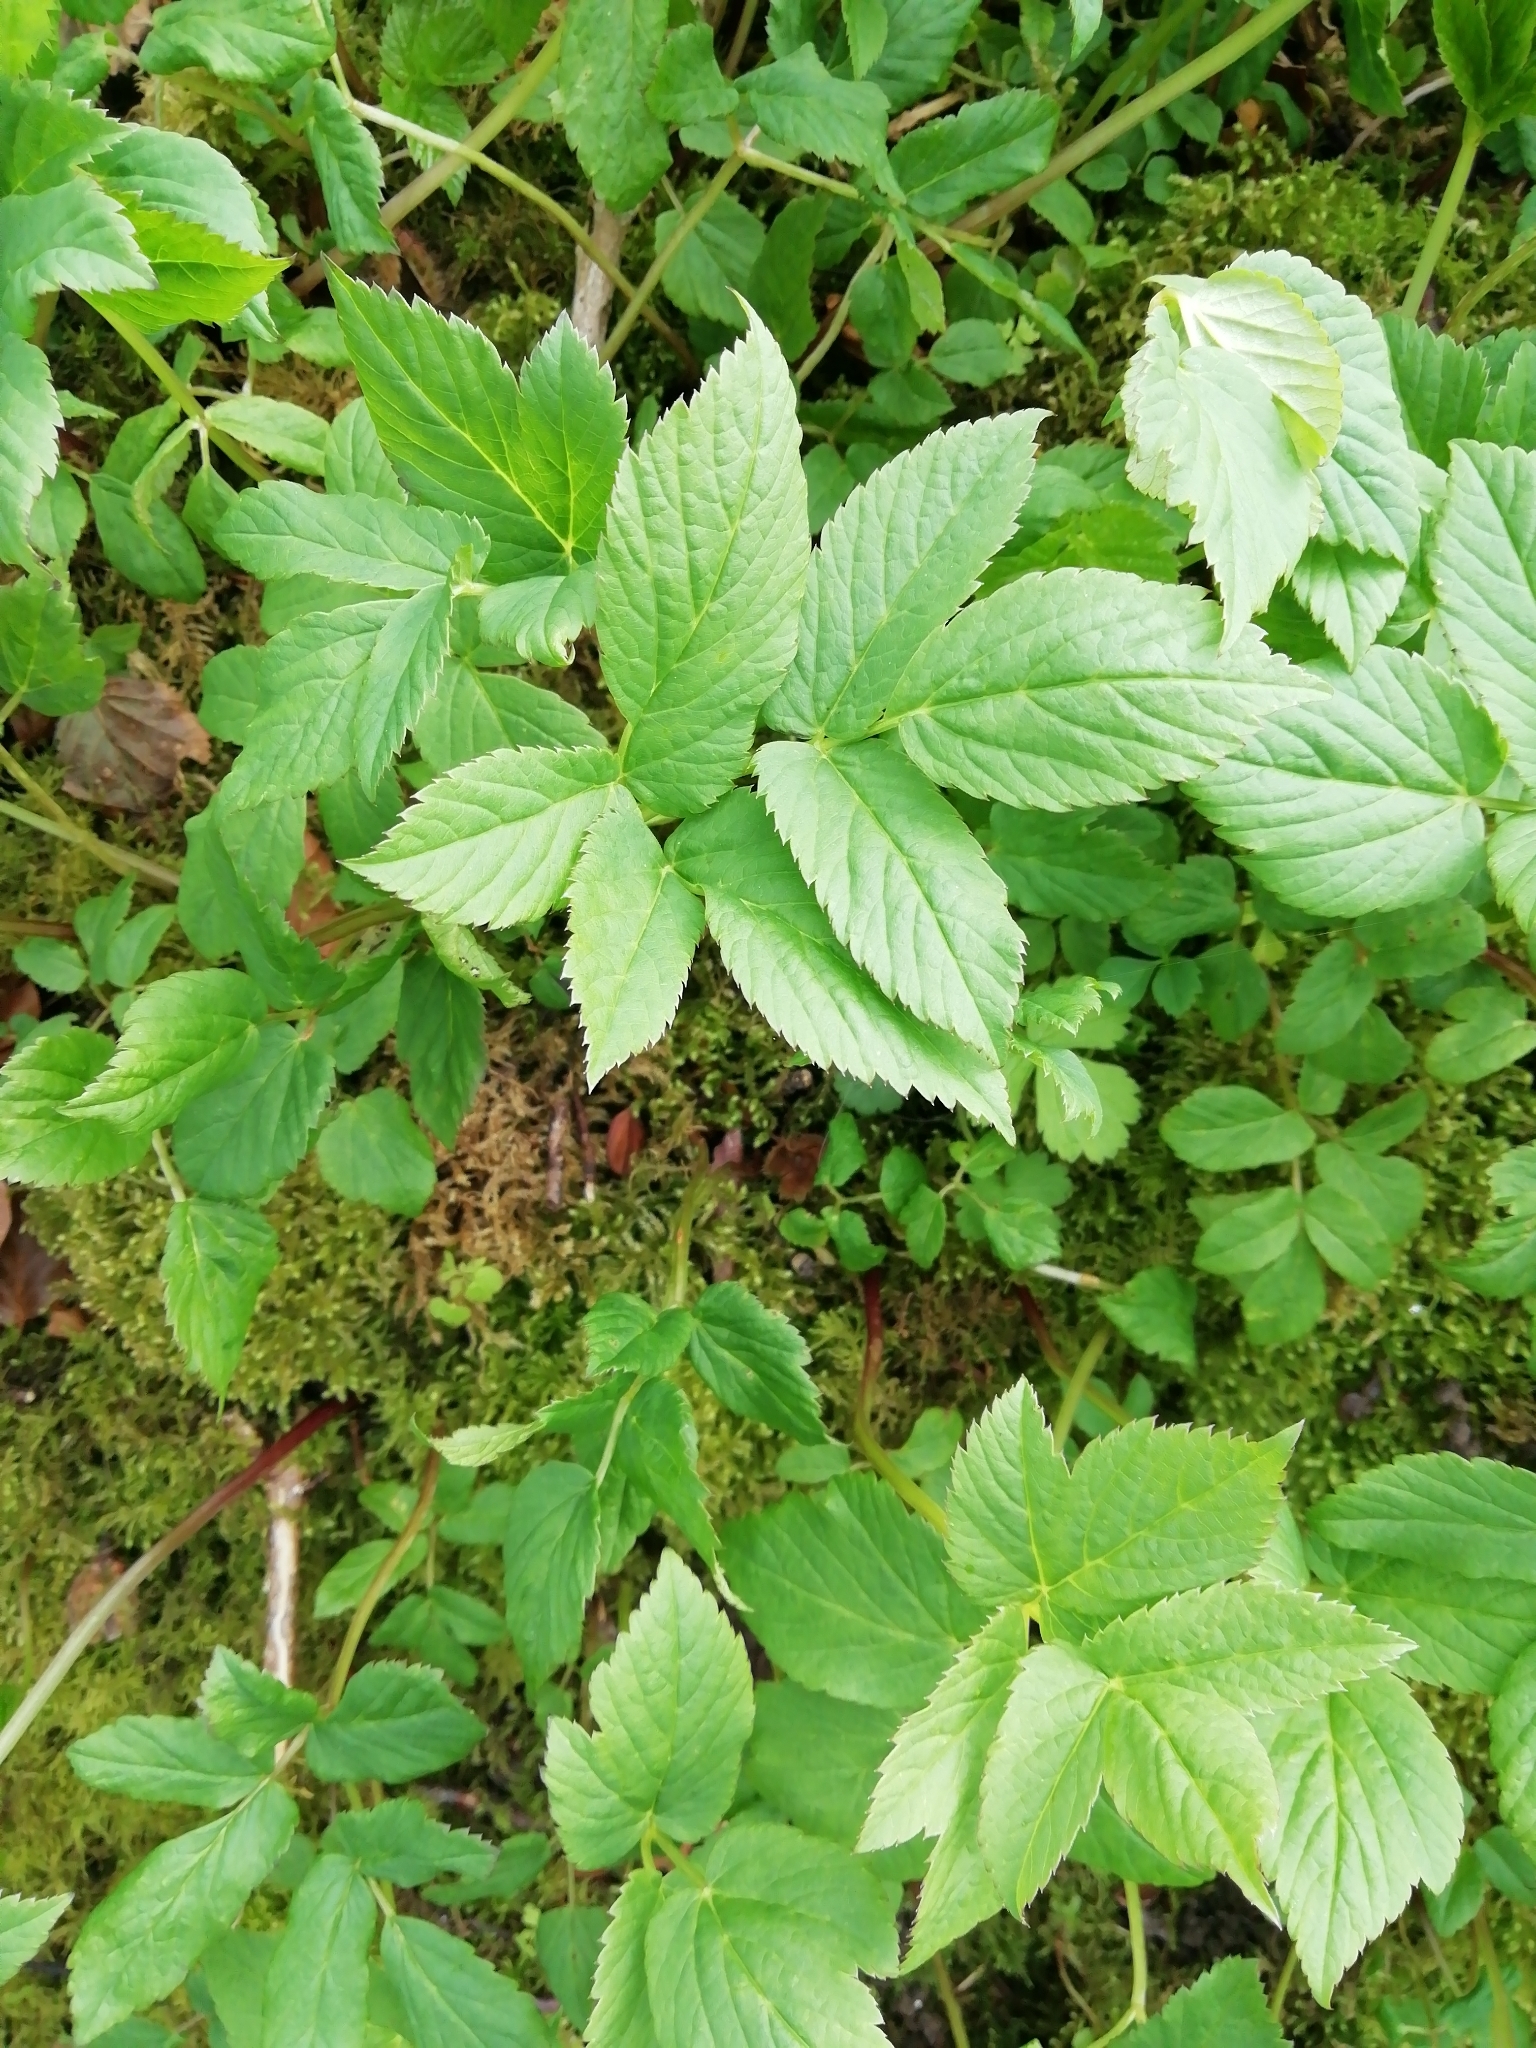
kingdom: Plantae
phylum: Tracheophyta
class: Magnoliopsida
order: Apiales
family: Apiaceae
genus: Aegopodium
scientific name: Aegopodium podagraria
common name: Ground-elder
